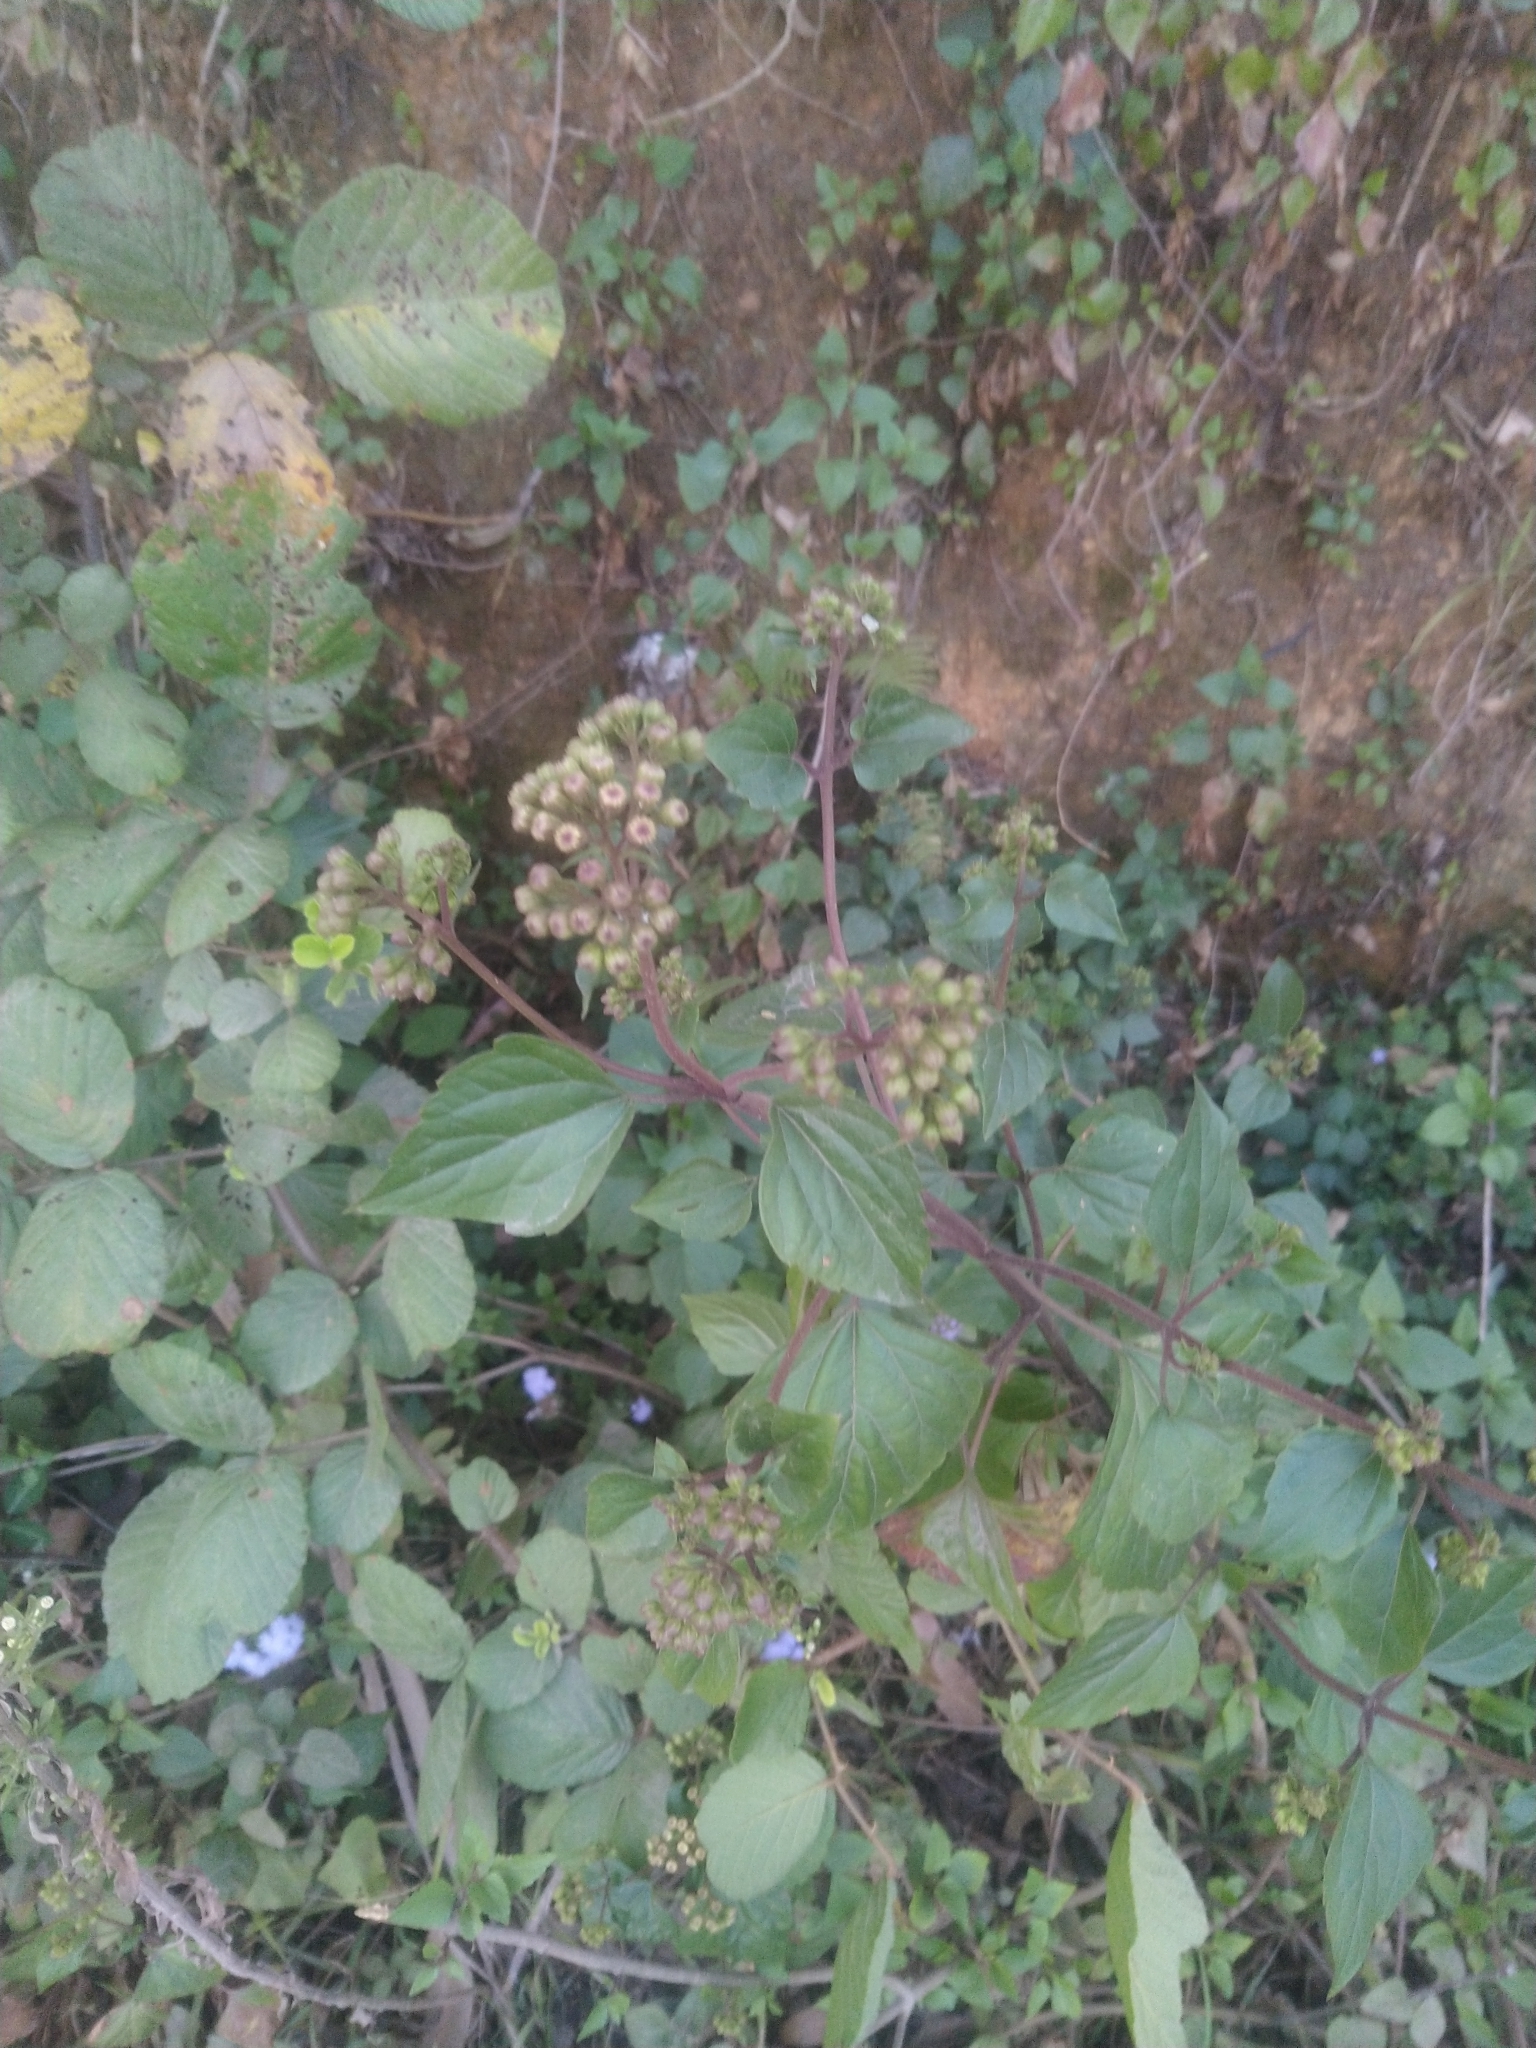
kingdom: Plantae
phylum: Tracheophyta
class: Magnoliopsida
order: Asterales
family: Asteraceae
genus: Ageratina
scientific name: Ageratina adenophora
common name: Sticky snakeroot
